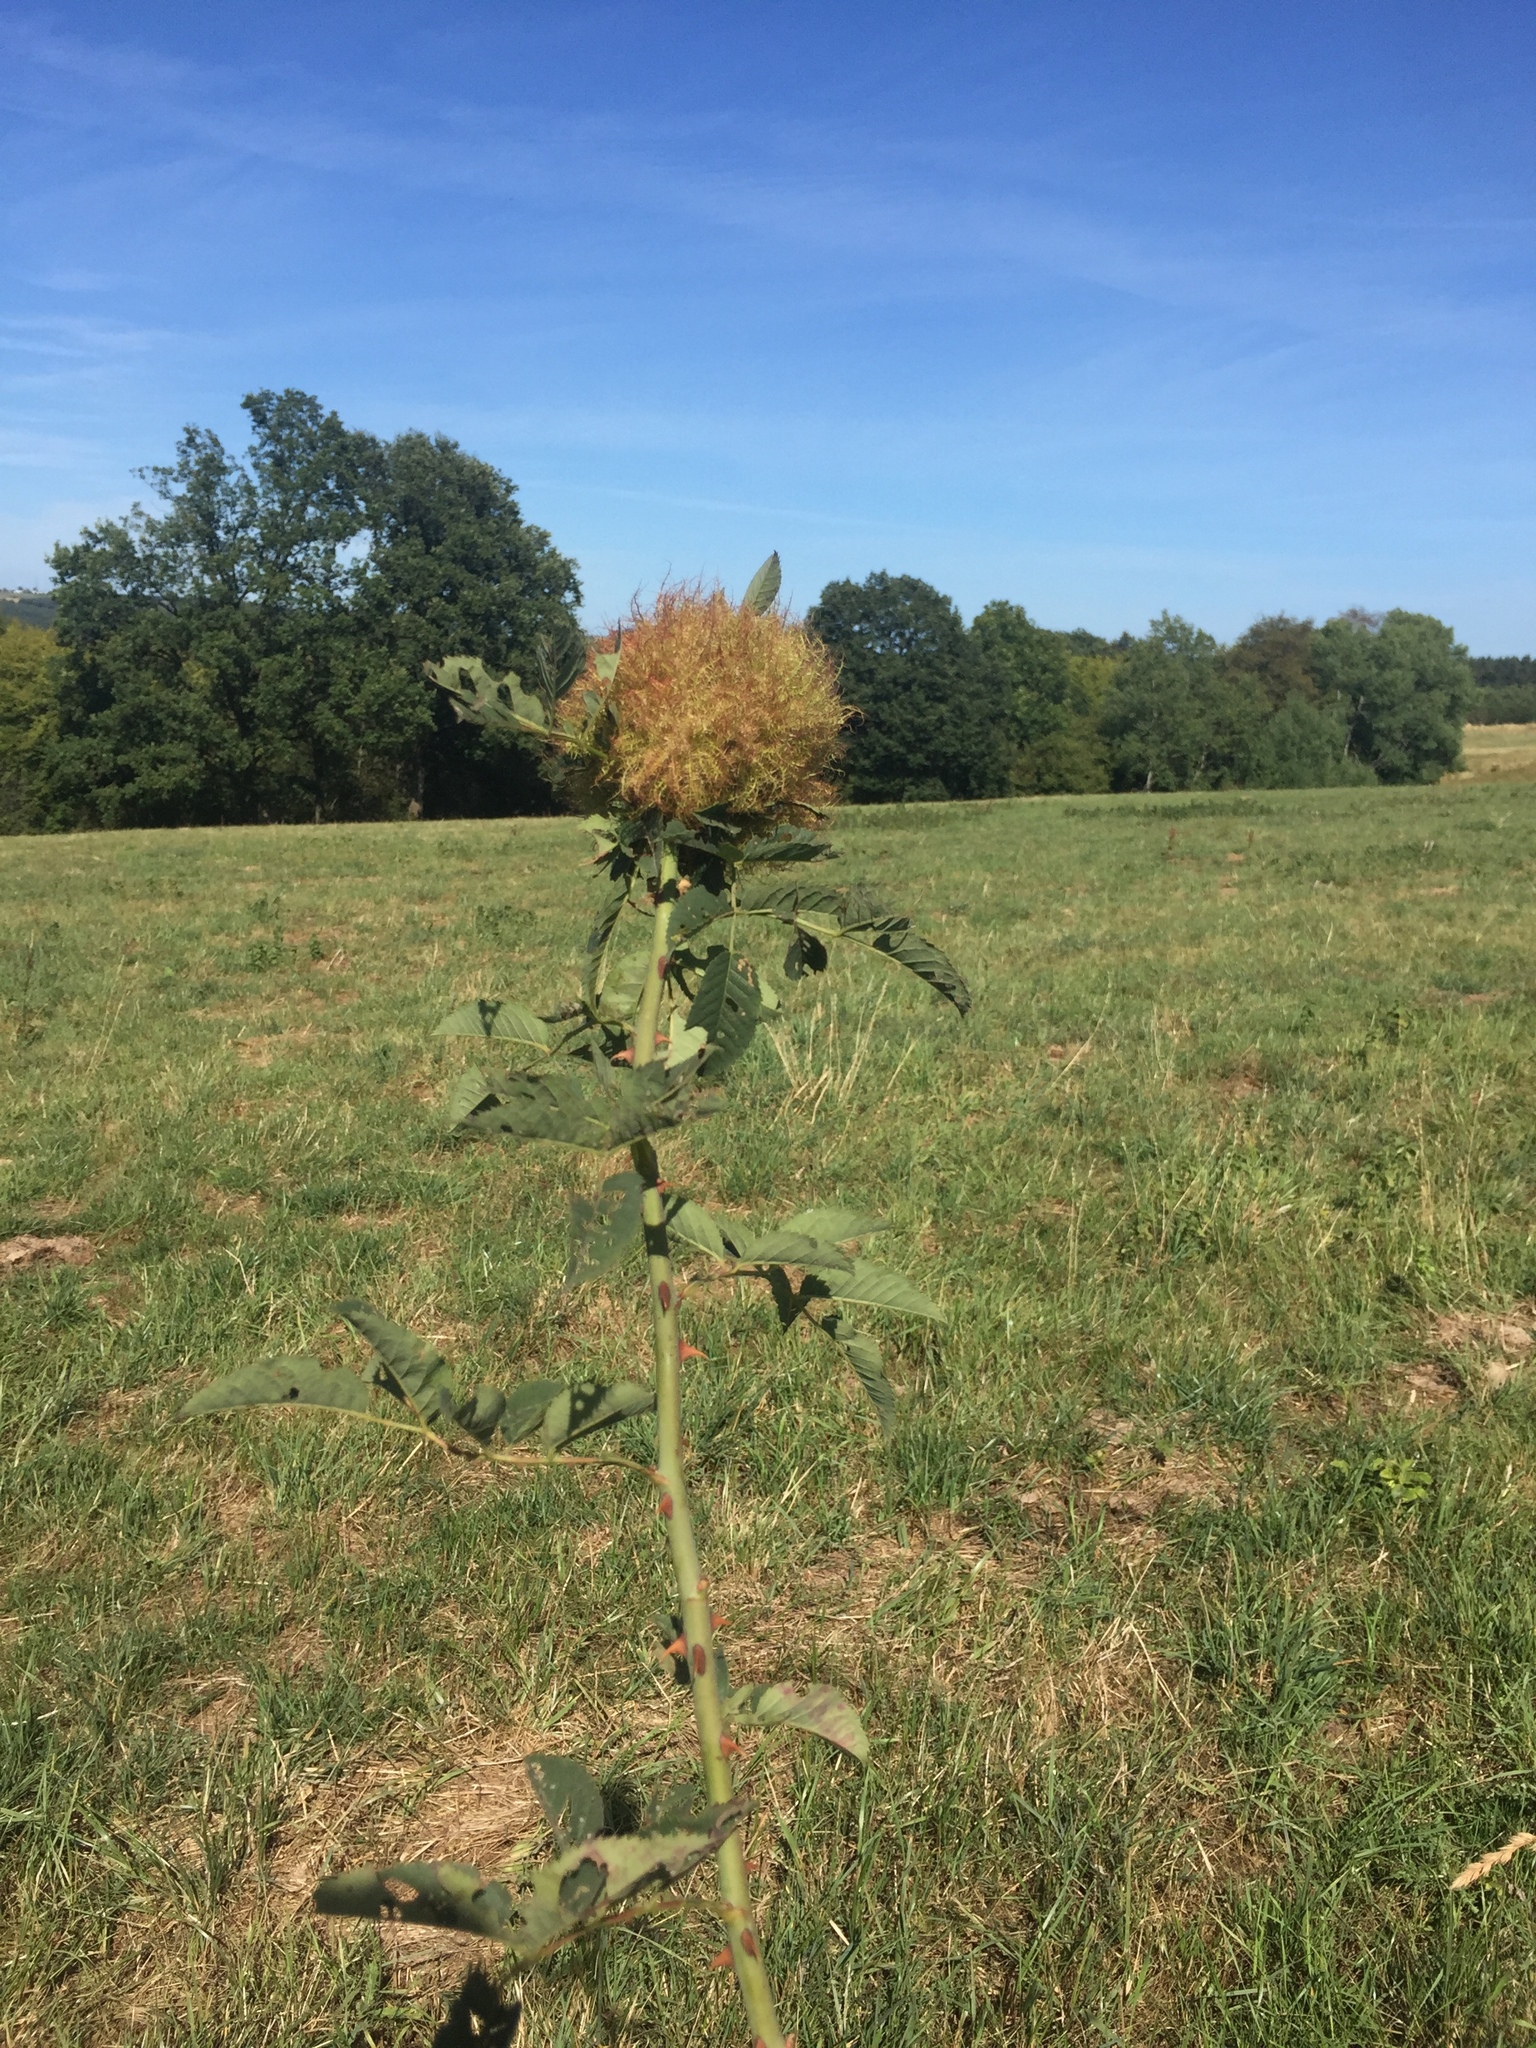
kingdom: Animalia
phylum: Arthropoda
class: Insecta
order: Hymenoptera
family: Cynipidae
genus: Diplolepis
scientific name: Diplolepis rosae
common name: Bedeguar gall
